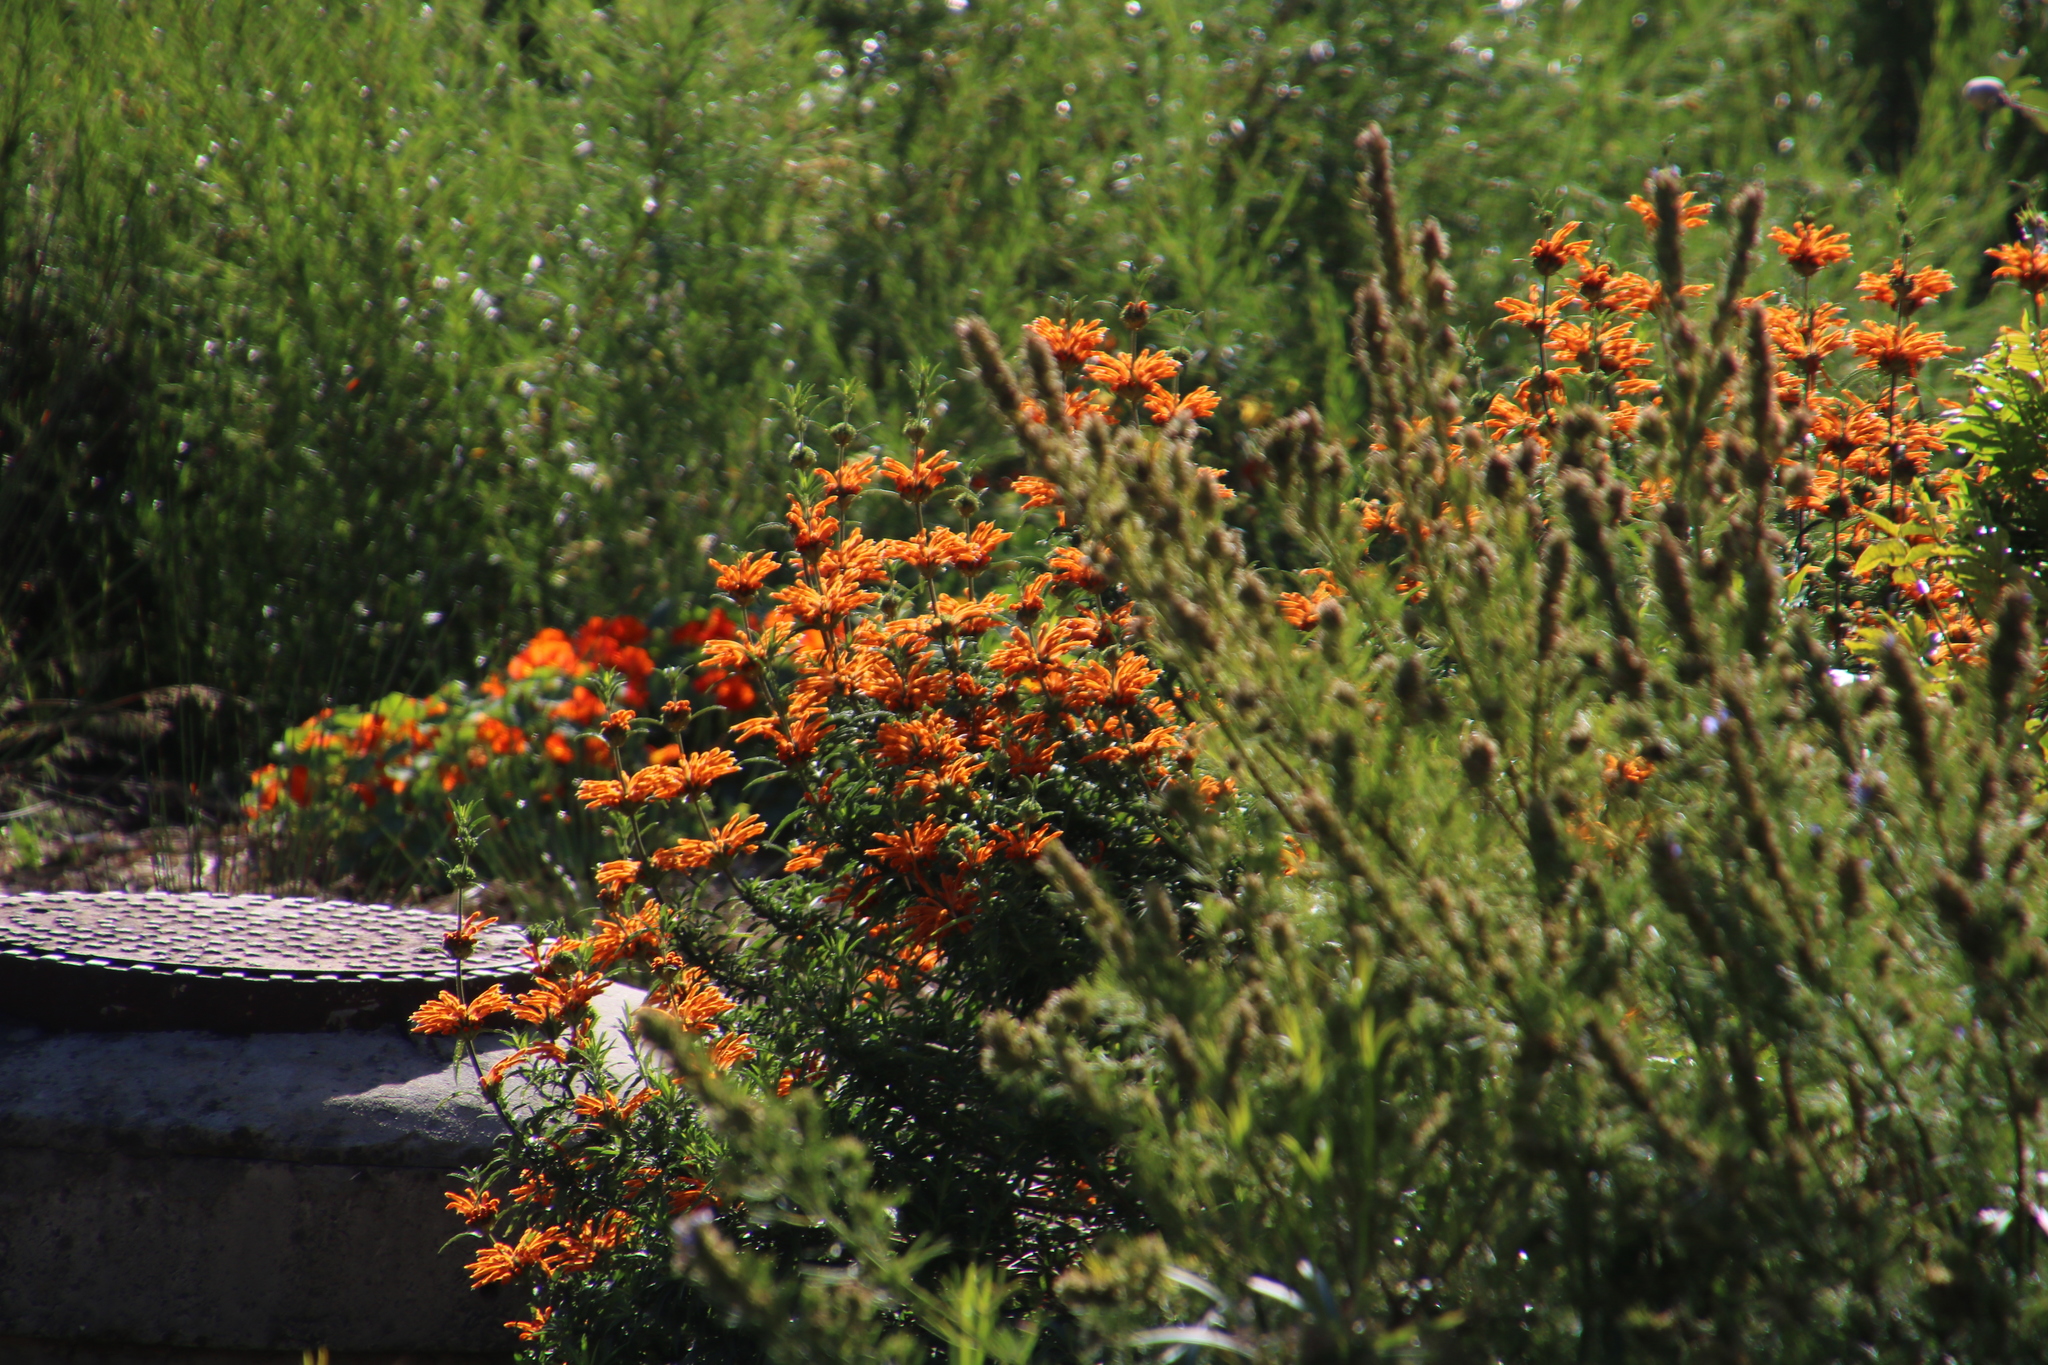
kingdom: Plantae
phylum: Tracheophyta
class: Magnoliopsida
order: Lamiales
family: Lamiaceae
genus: Leonotis
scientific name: Leonotis leonurus
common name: Lion's ear
